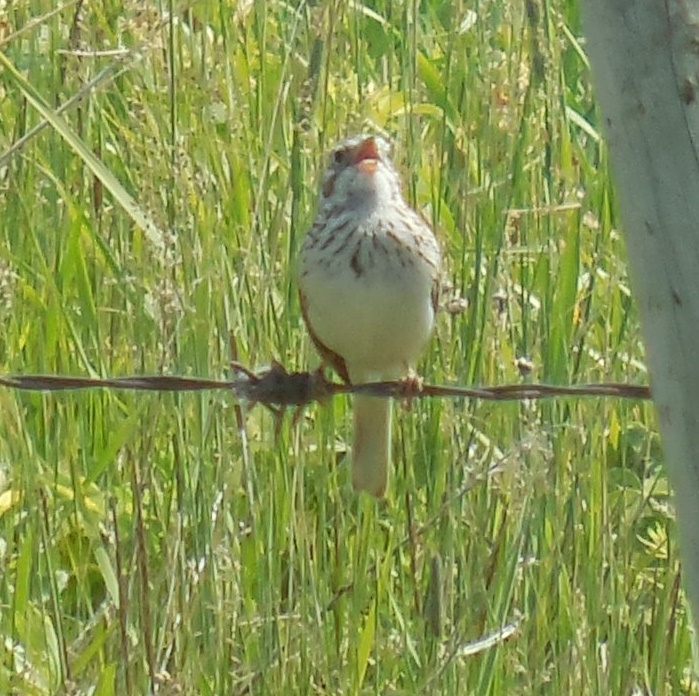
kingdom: Animalia
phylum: Chordata
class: Aves
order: Passeriformes
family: Passerellidae
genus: Pooecetes
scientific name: Pooecetes gramineus
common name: Vesper sparrow
